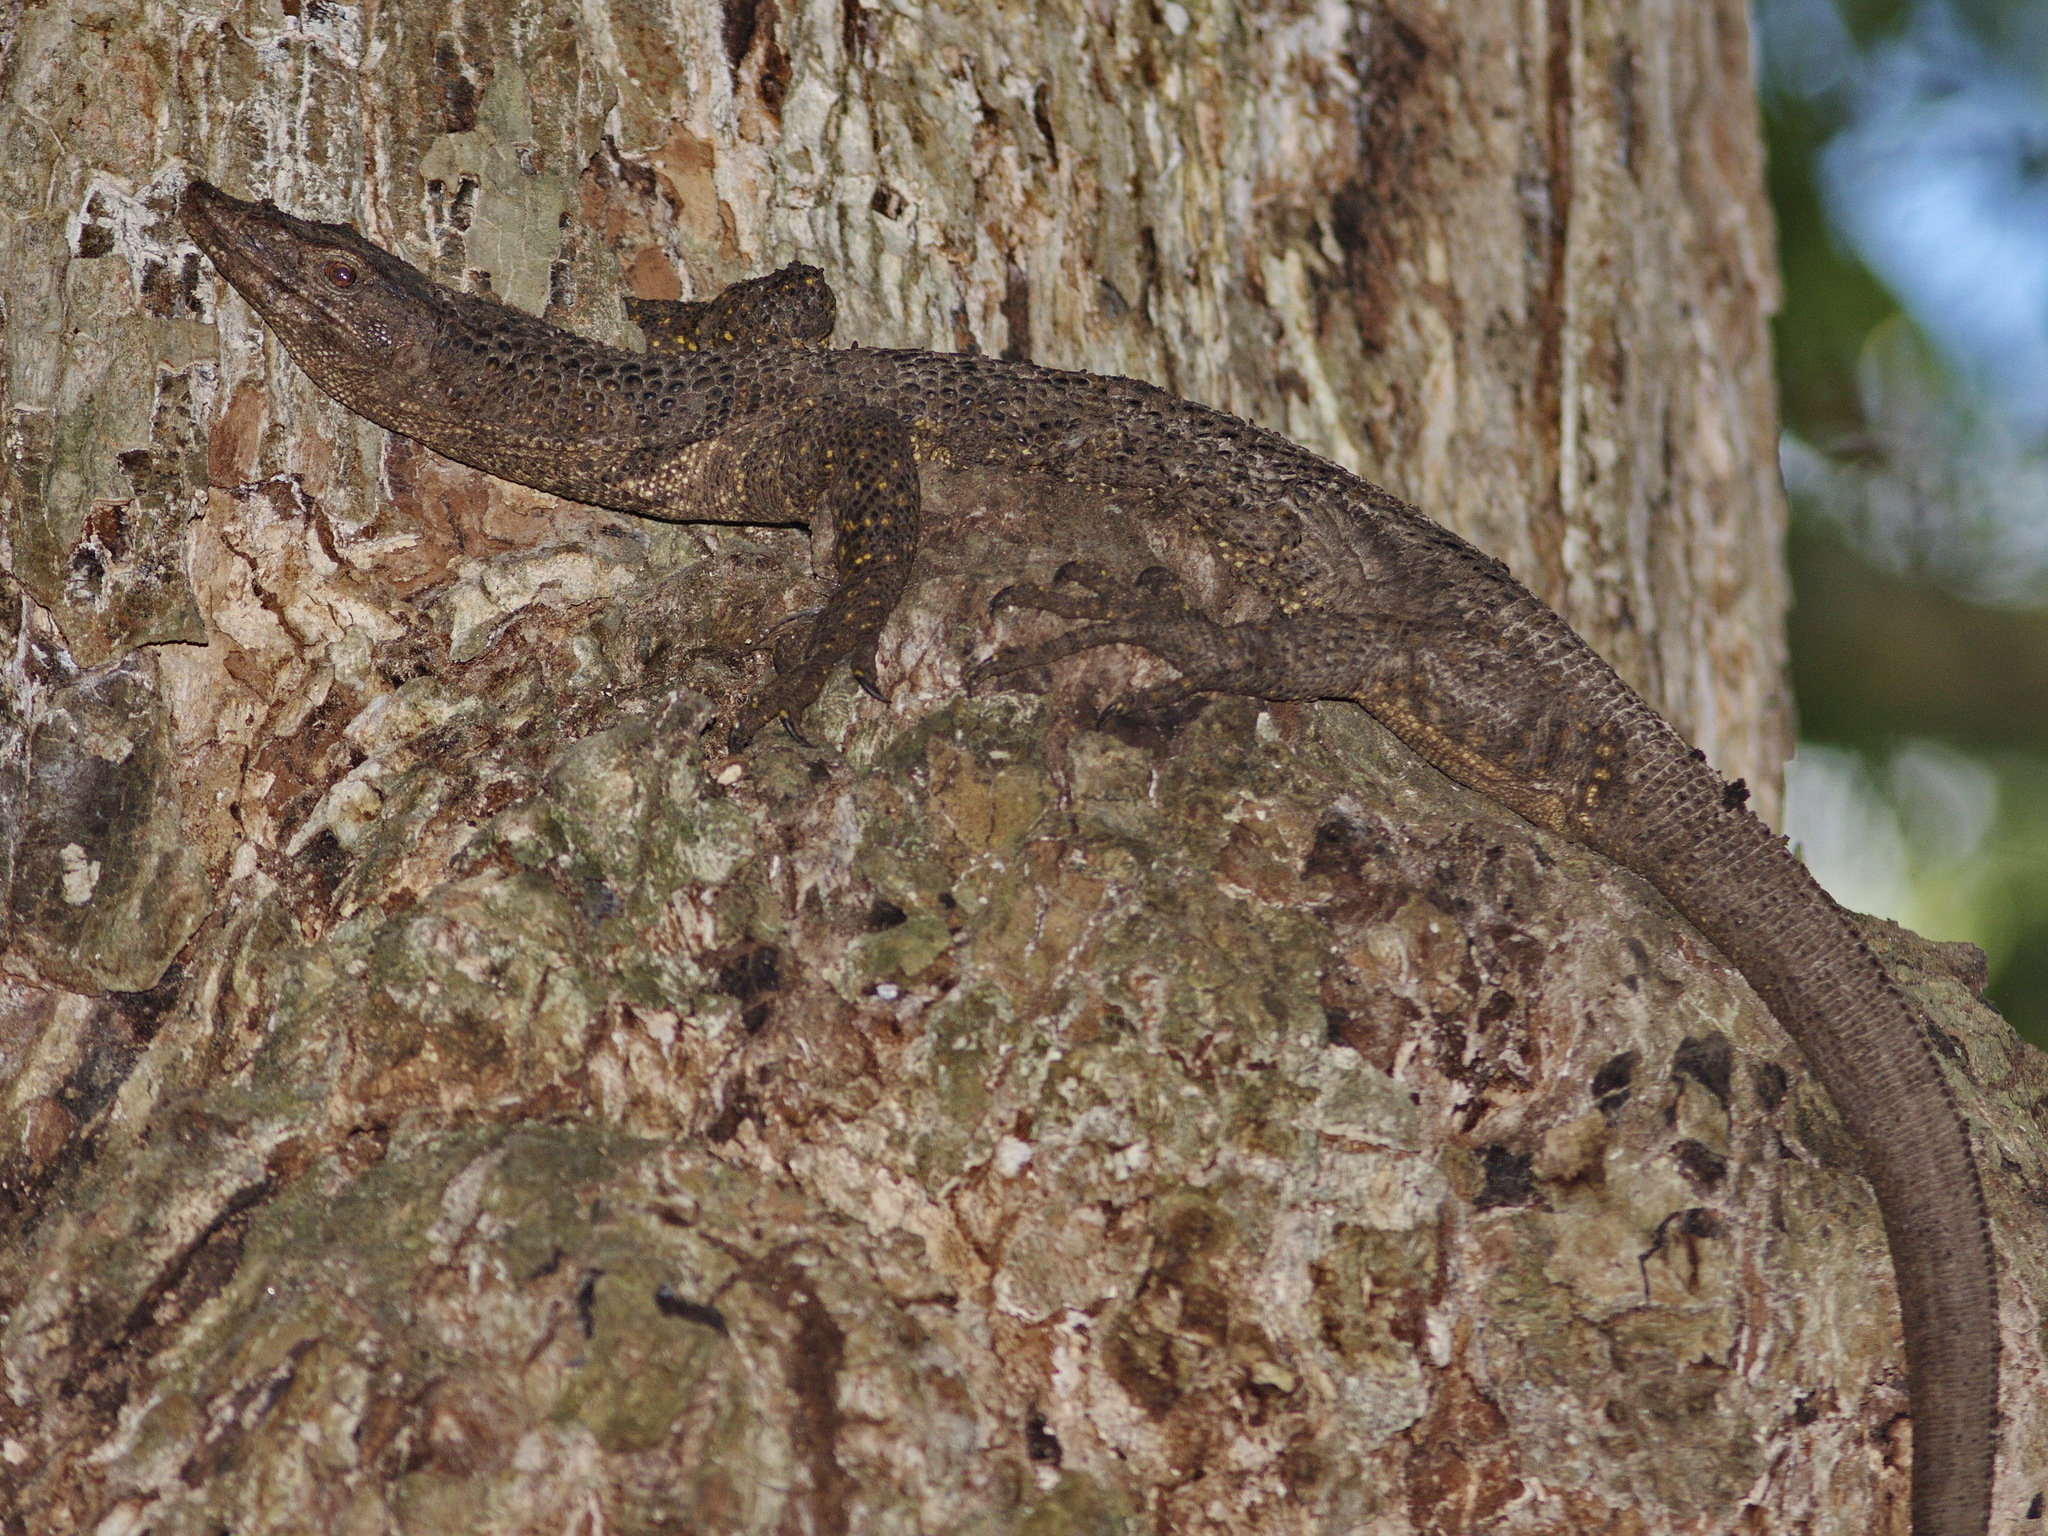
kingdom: Animalia
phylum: Chordata
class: Squamata
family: Varanidae
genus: Varanus
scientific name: Varanus dumerilii
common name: Dumeril monitor
